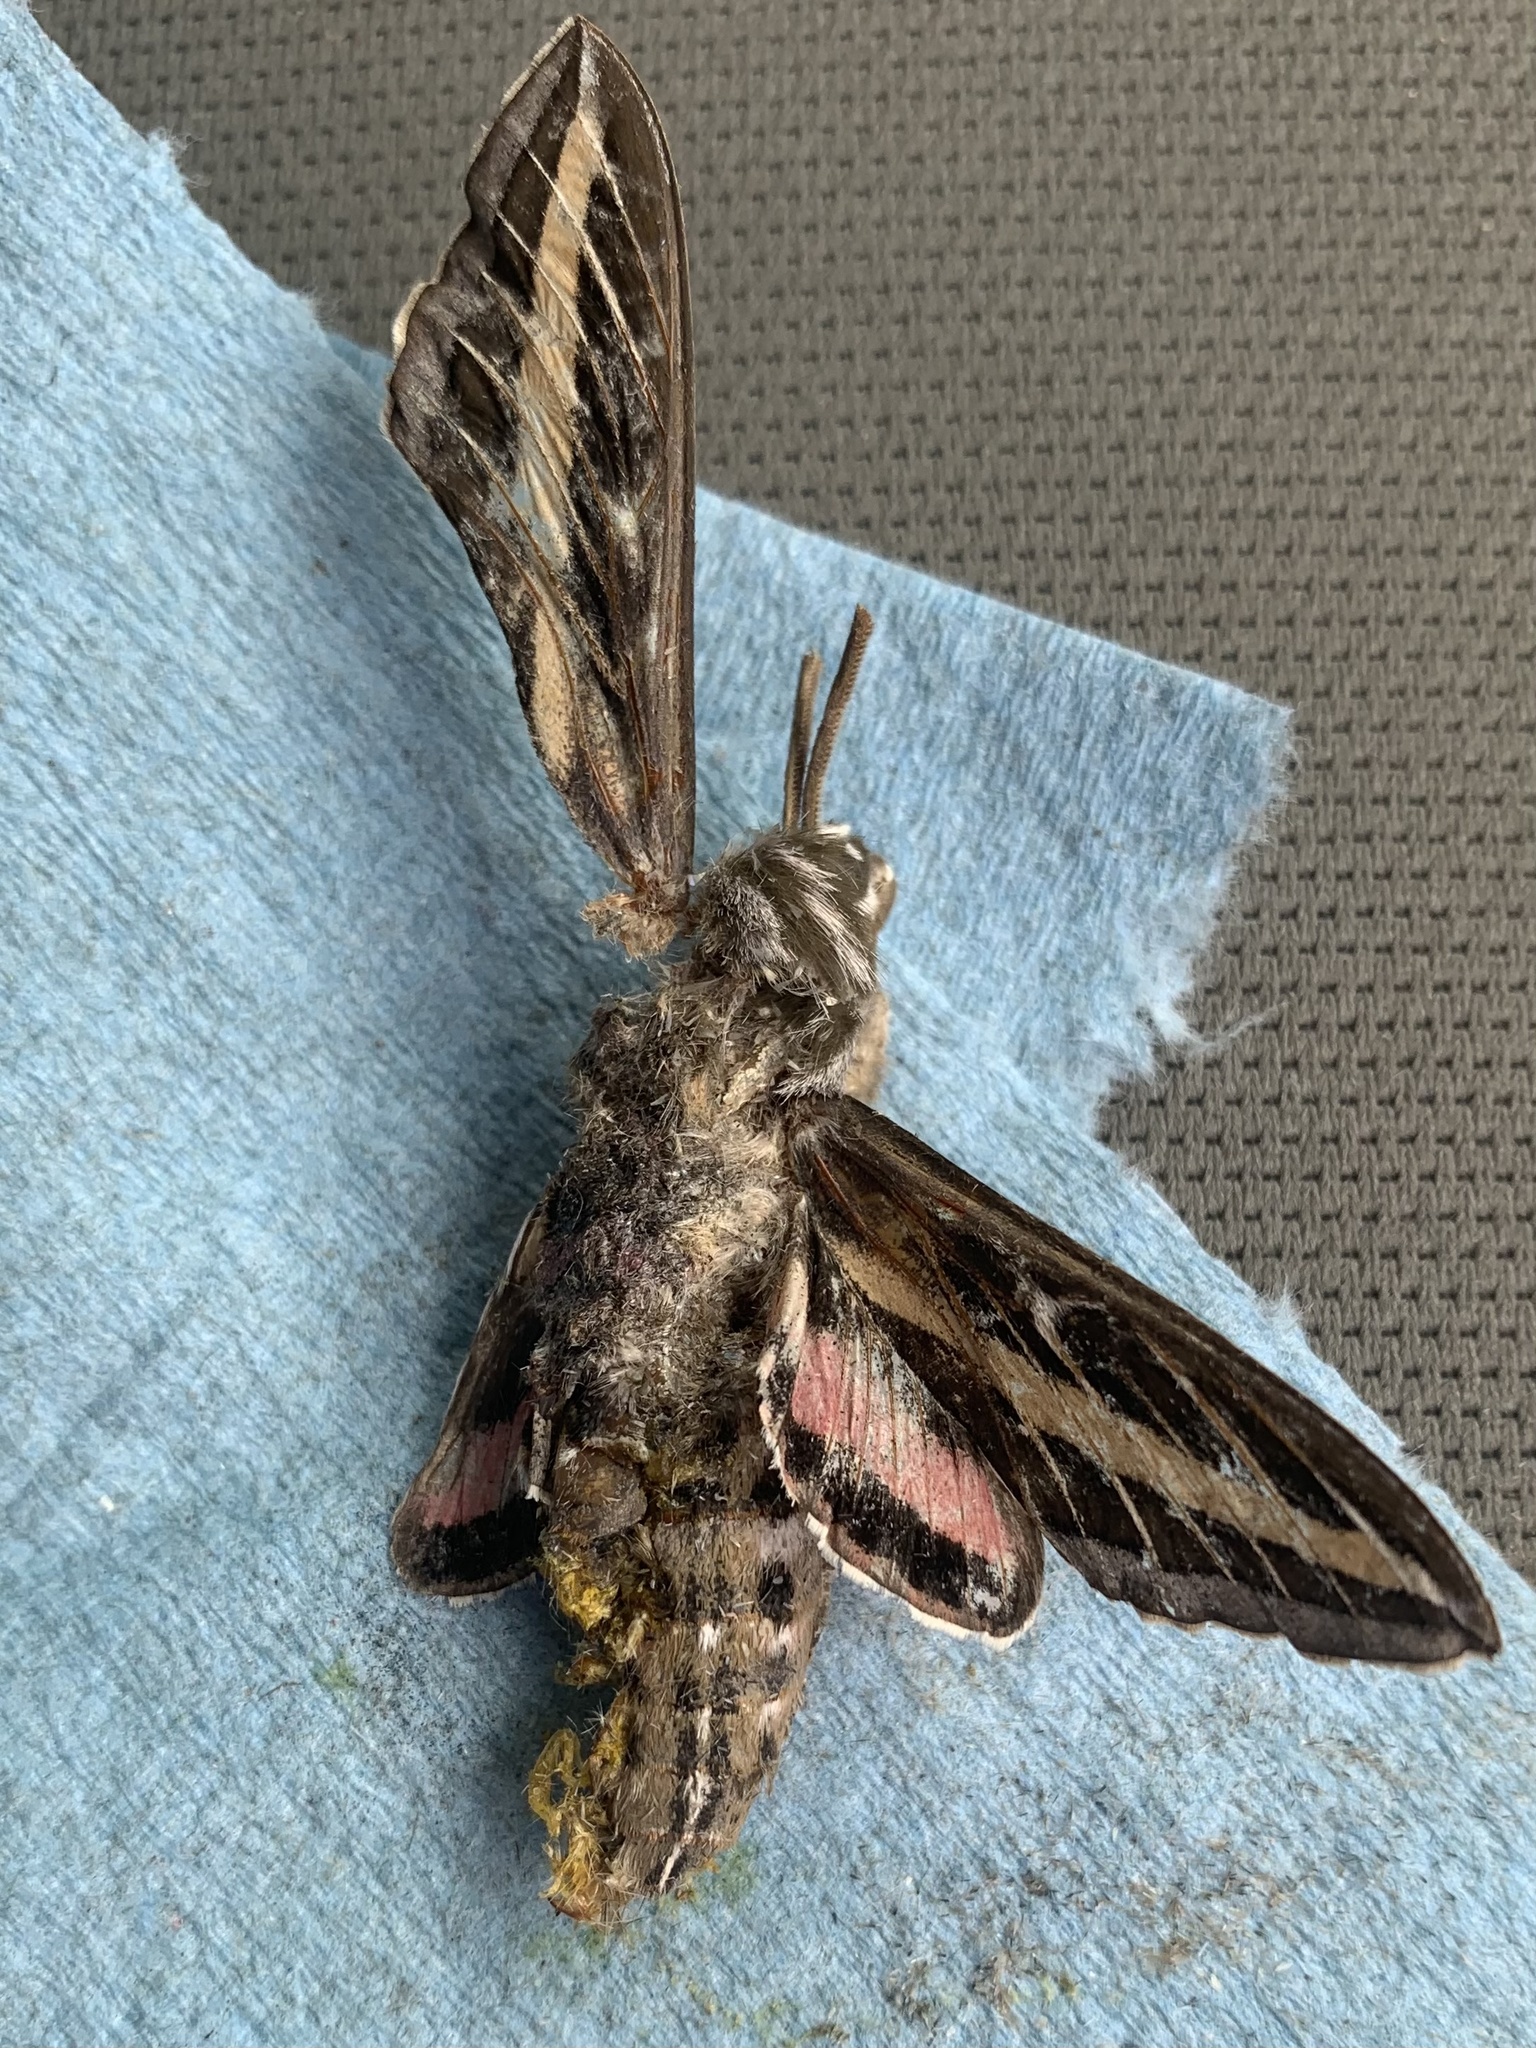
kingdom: Animalia
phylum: Arthropoda
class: Insecta
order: Lepidoptera
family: Sphingidae
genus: Hyles
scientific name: Hyles lineata
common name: White-lined sphinx
